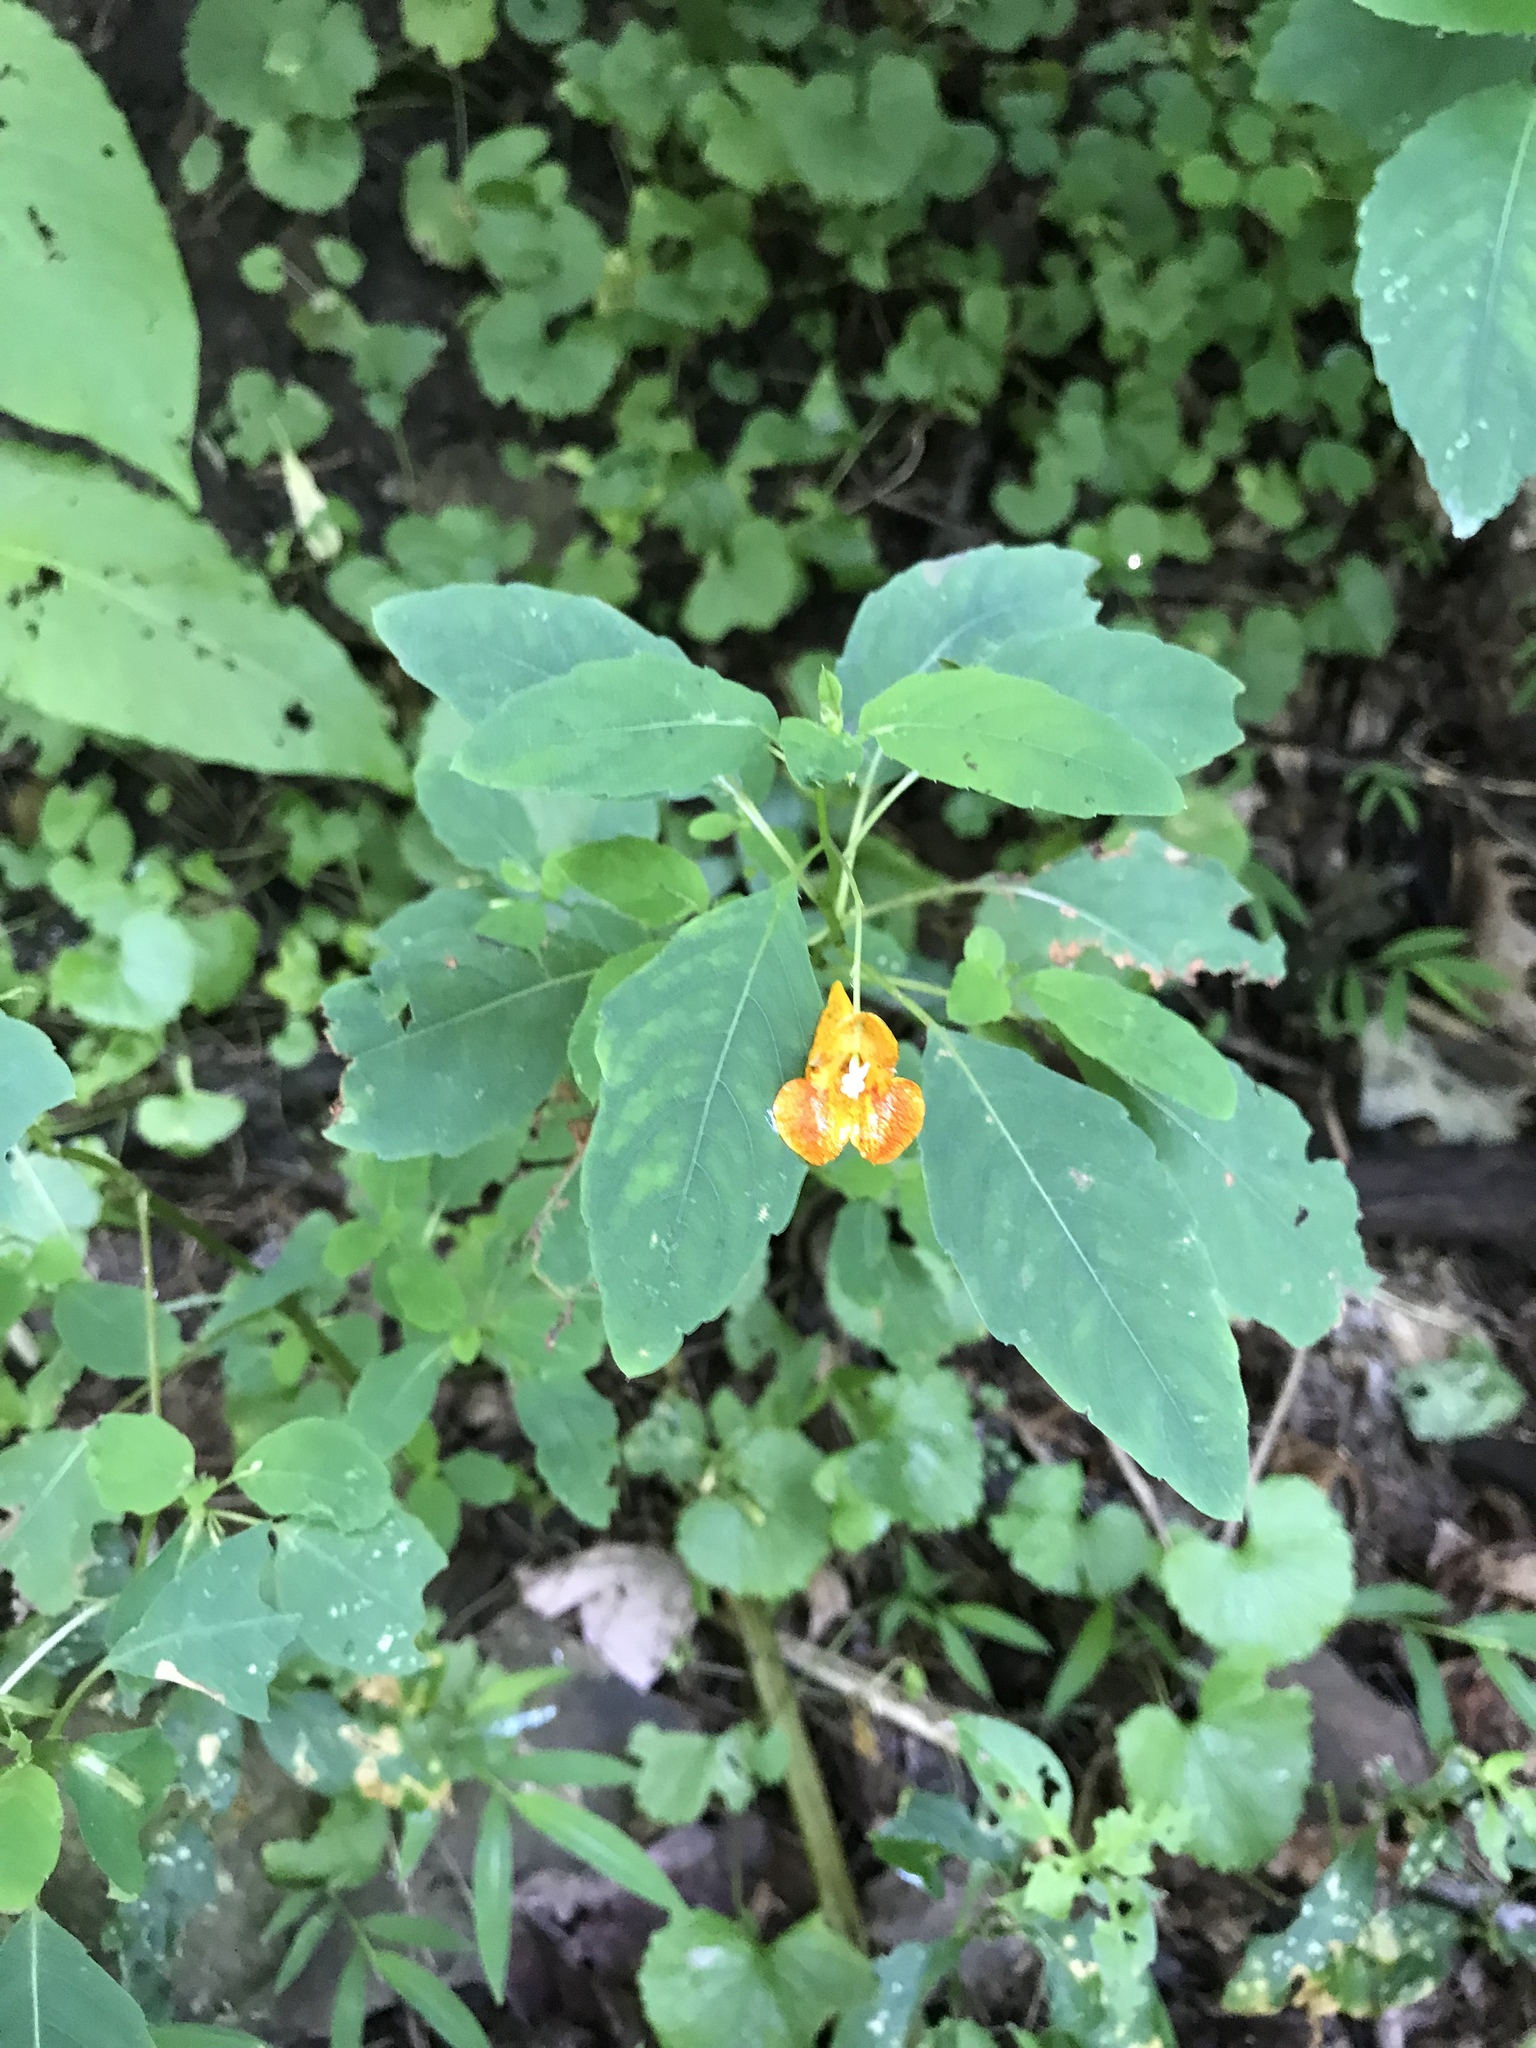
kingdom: Plantae
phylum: Tracheophyta
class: Magnoliopsida
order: Ericales
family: Balsaminaceae
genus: Impatiens
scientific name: Impatiens capensis
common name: Orange balsam
